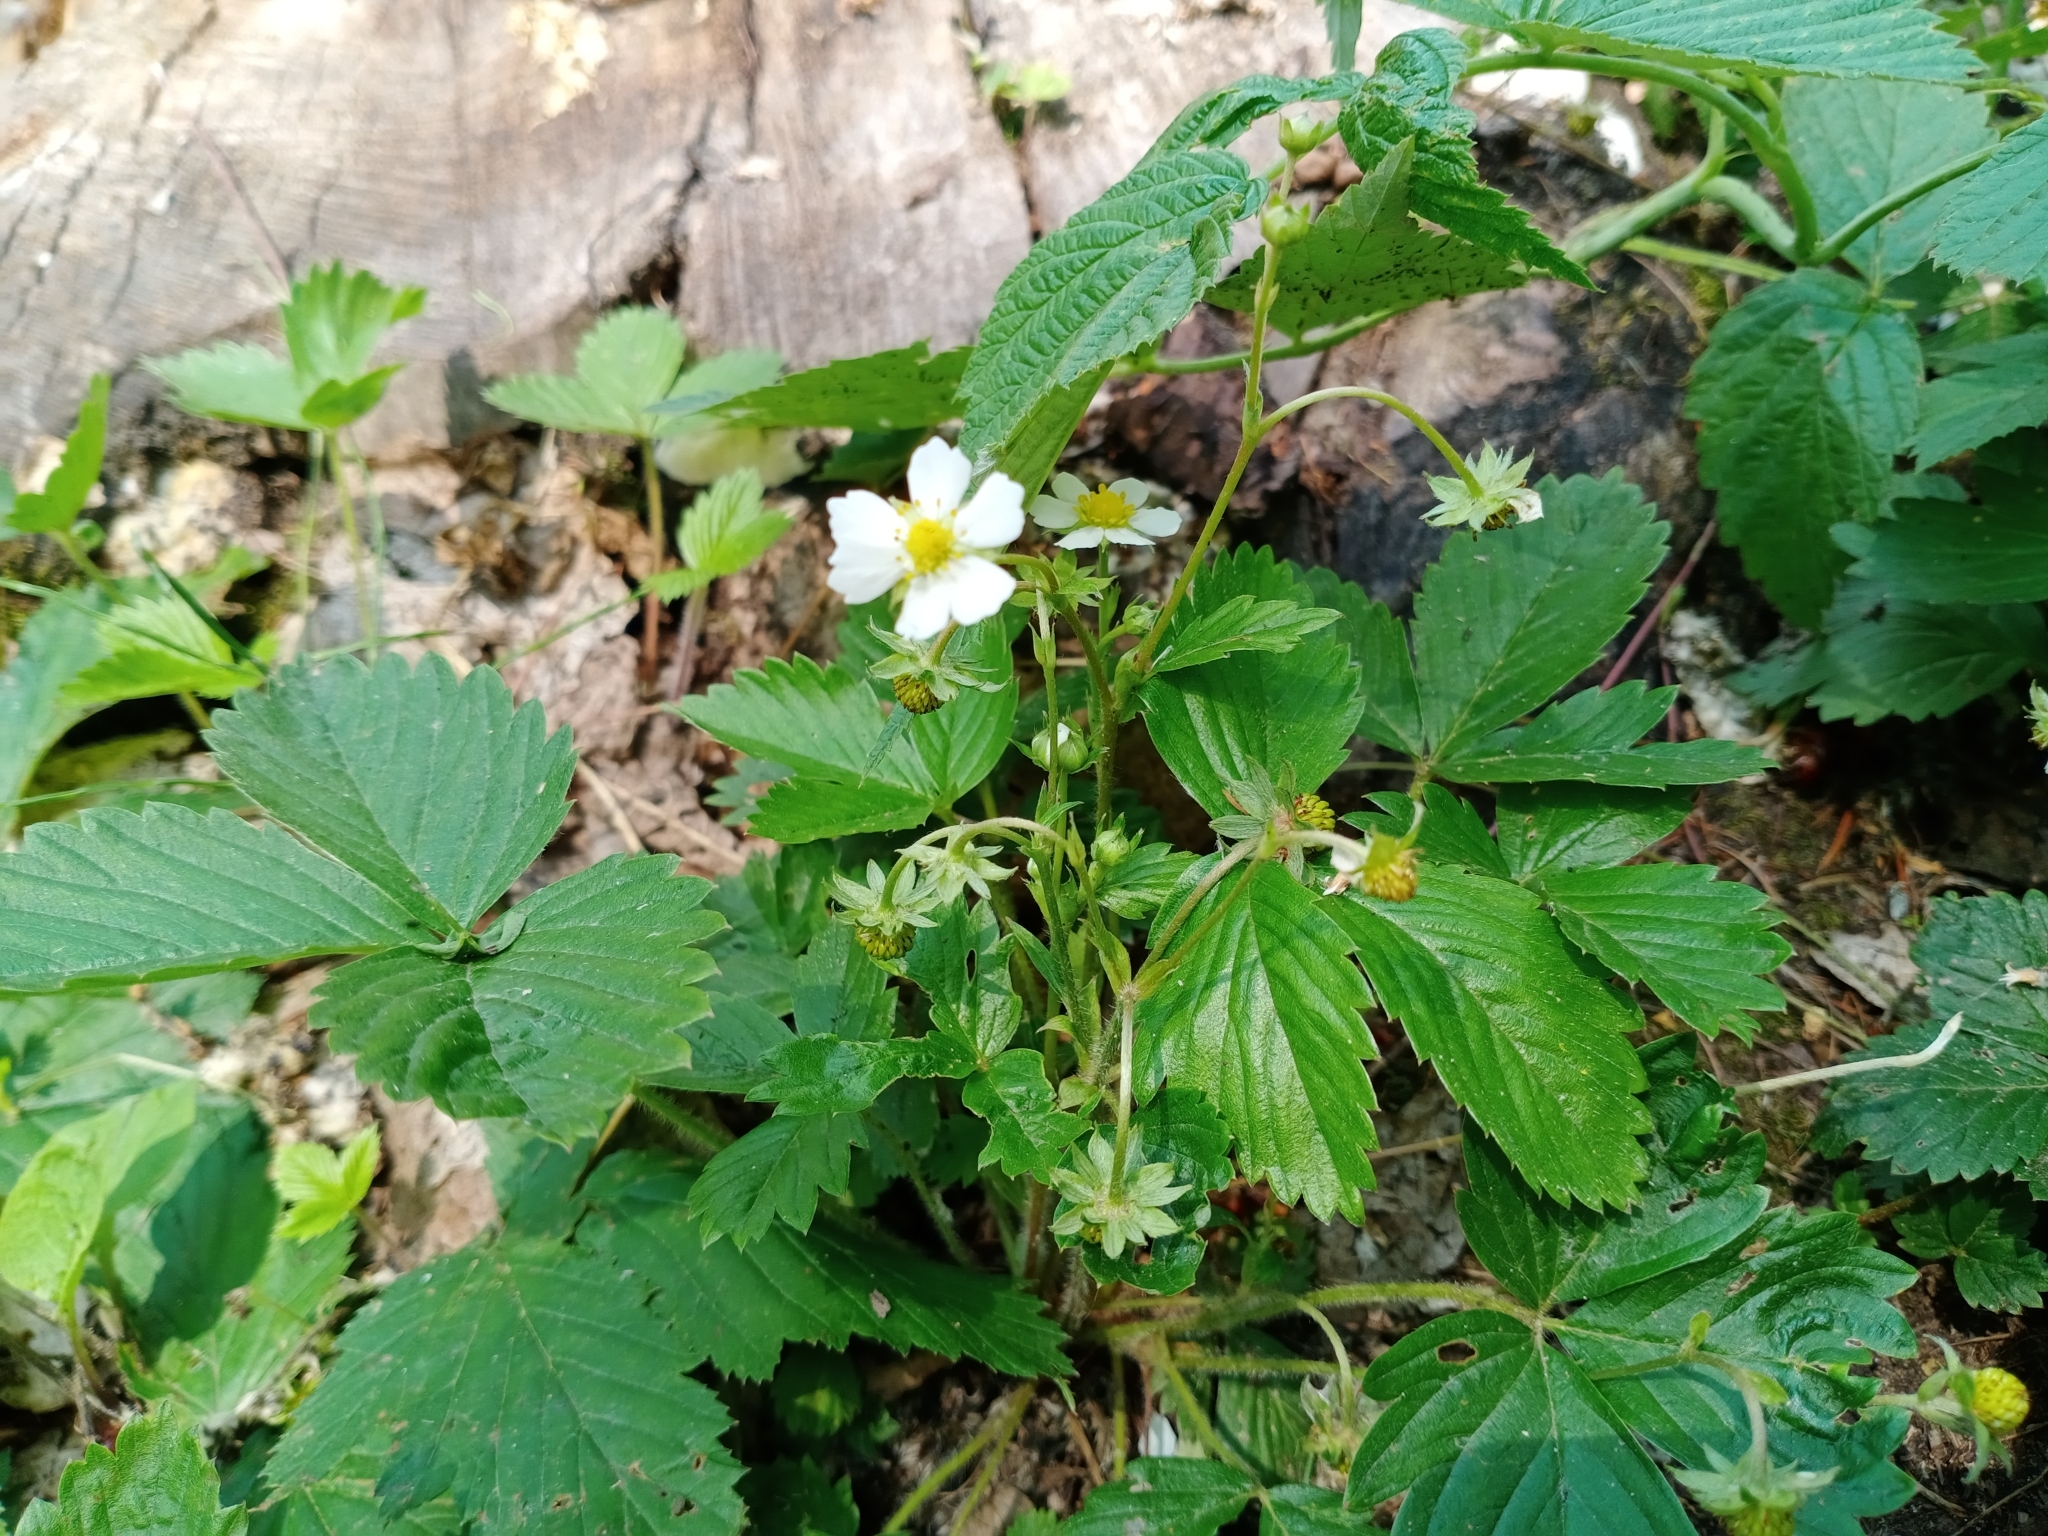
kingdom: Plantae
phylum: Tracheophyta
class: Magnoliopsida
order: Rosales
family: Rosaceae
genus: Fragaria
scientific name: Fragaria vesca
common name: Wild strawberry
